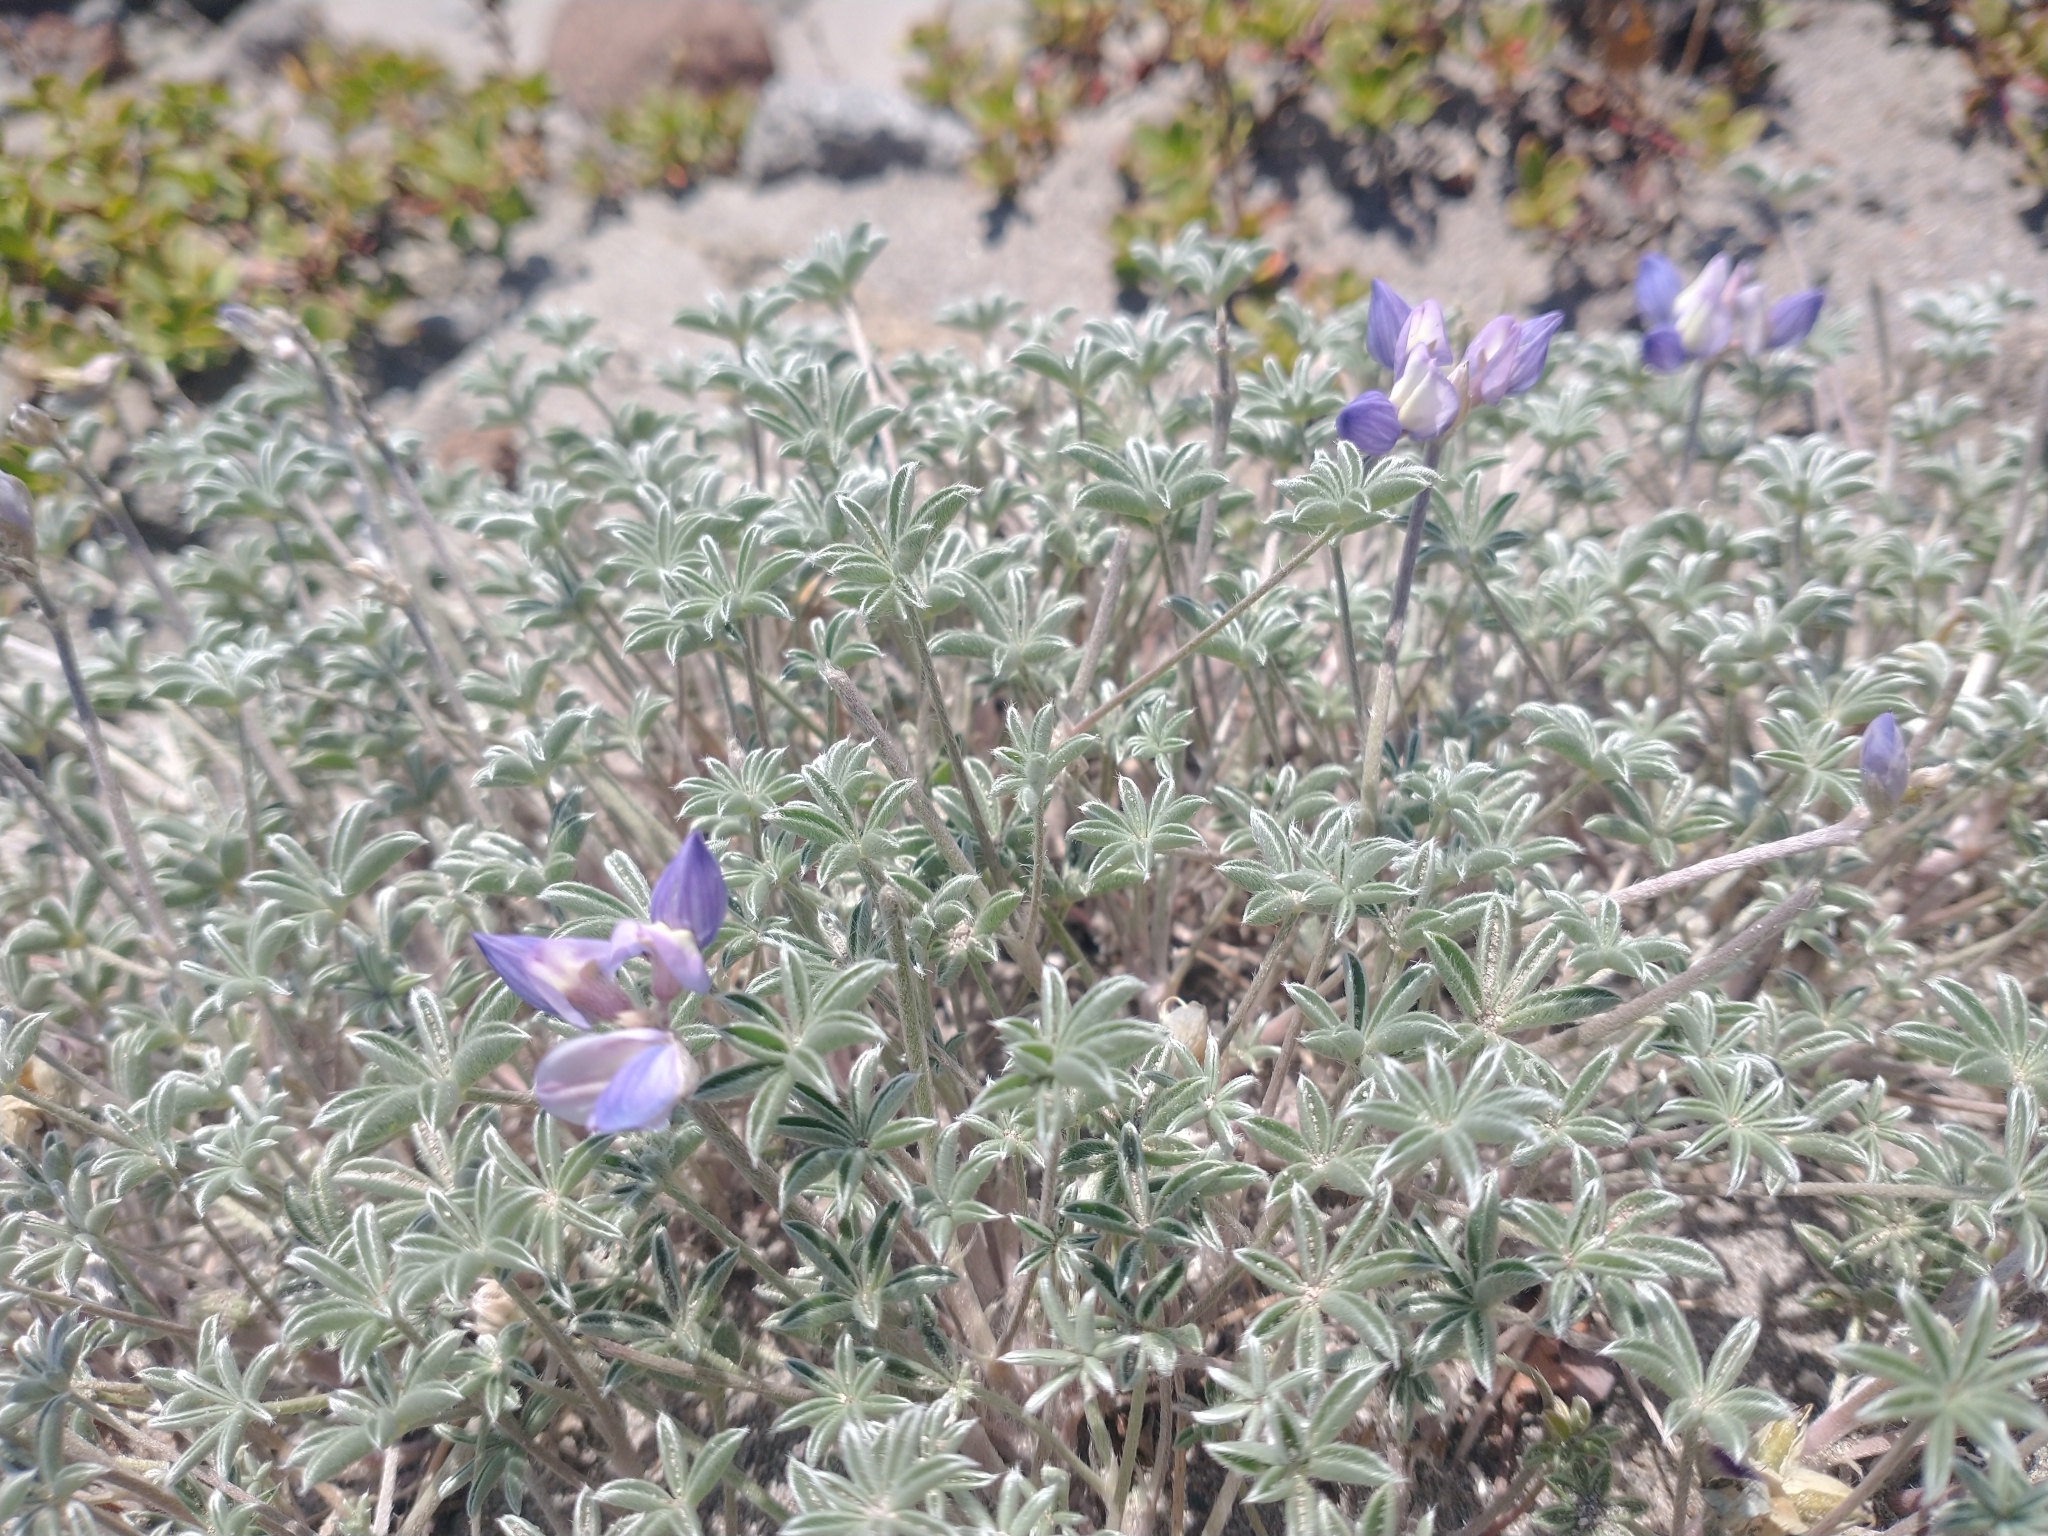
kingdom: Plantae
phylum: Tracheophyta
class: Magnoliopsida
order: Fabales
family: Fabaceae
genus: Lupinus
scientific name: Lupinus lepidus
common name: Prairie lupine
